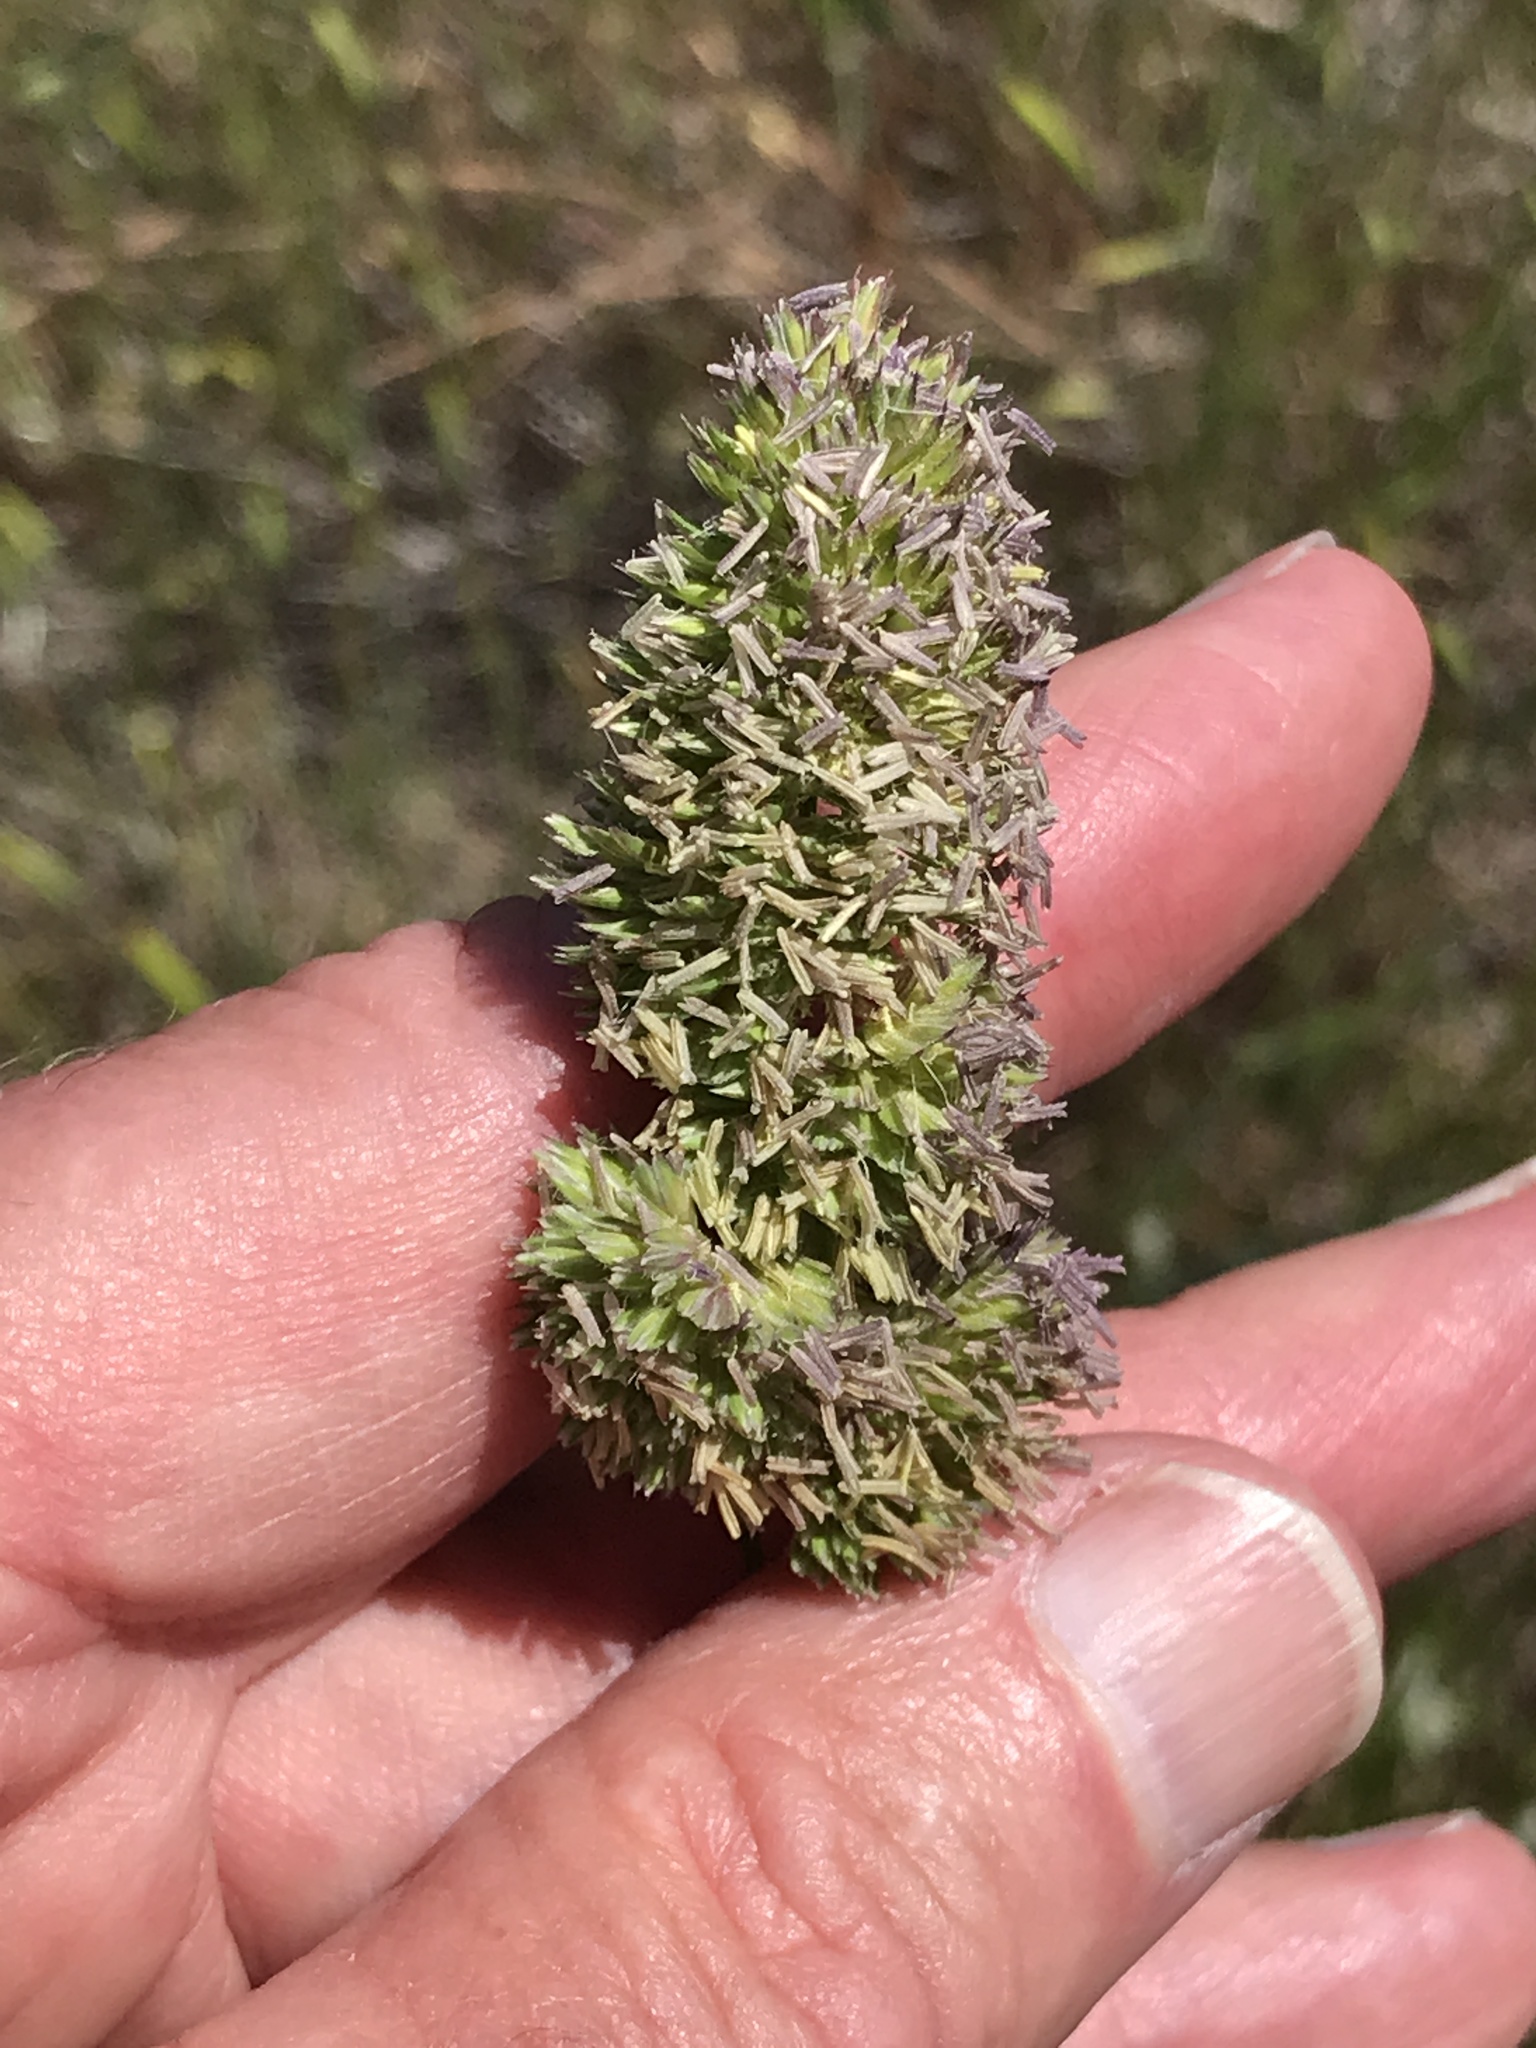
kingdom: Plantae
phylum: Tracheophyta
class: Liliopsida
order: Poales
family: Poaceae
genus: Dactylis
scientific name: Dactylis glomerata
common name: Orchardgrass
